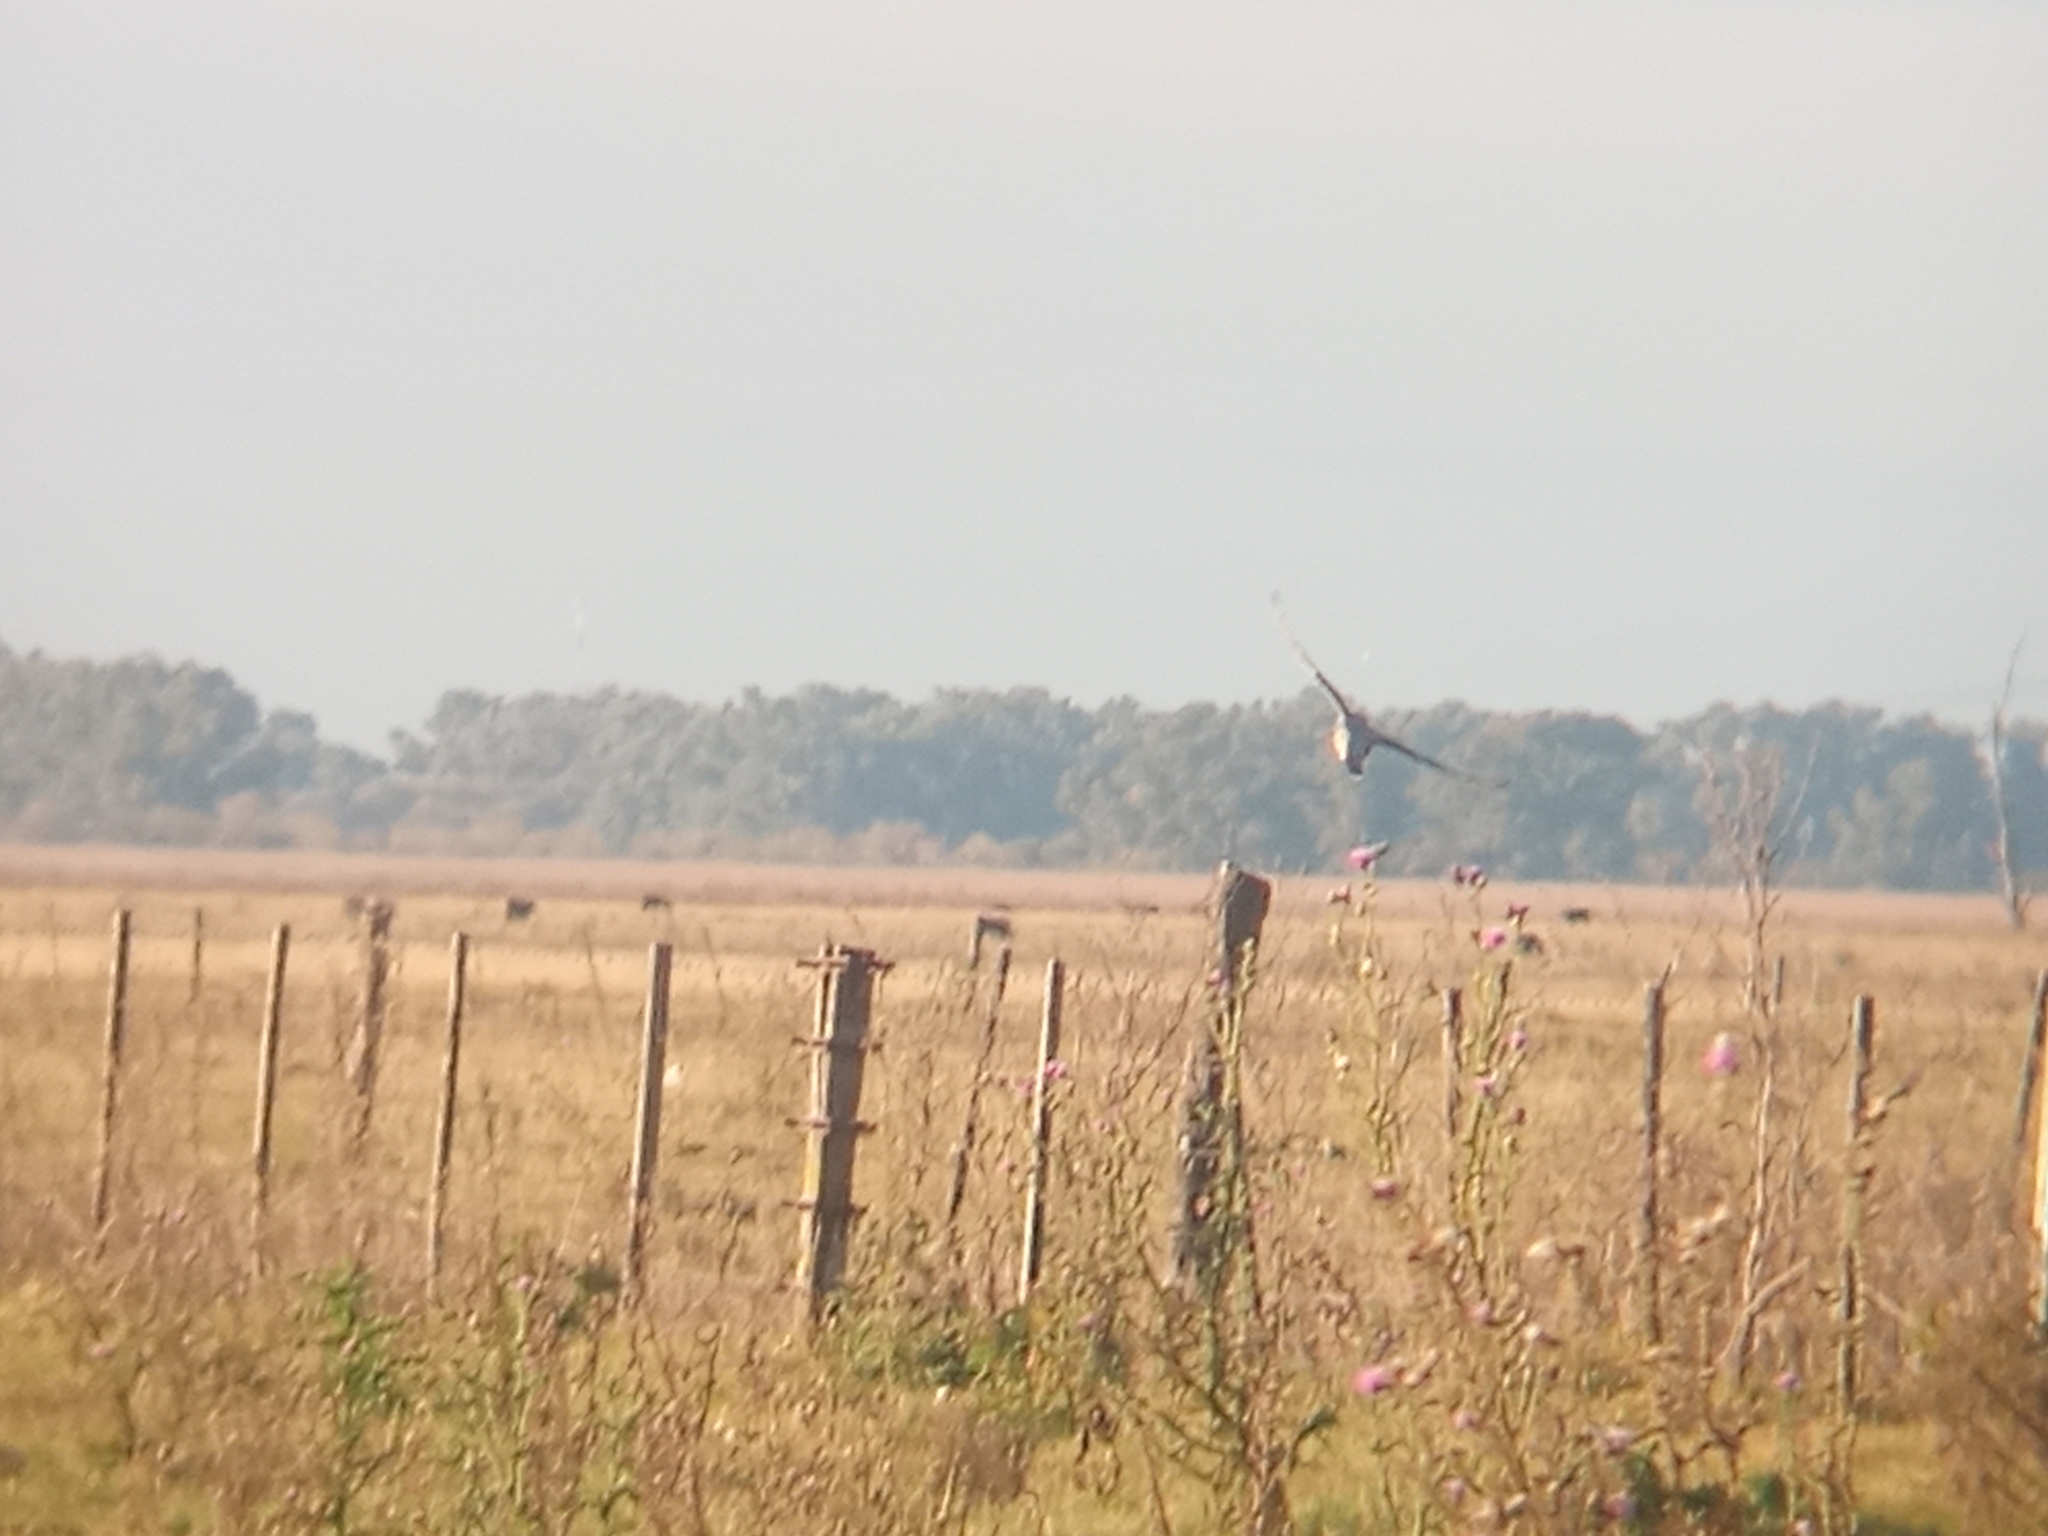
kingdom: Animalia
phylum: Chordata
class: Aves
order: Falconiformes
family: Falconidae
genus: Falco
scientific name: Falco femoralis
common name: Aplomado falcon
